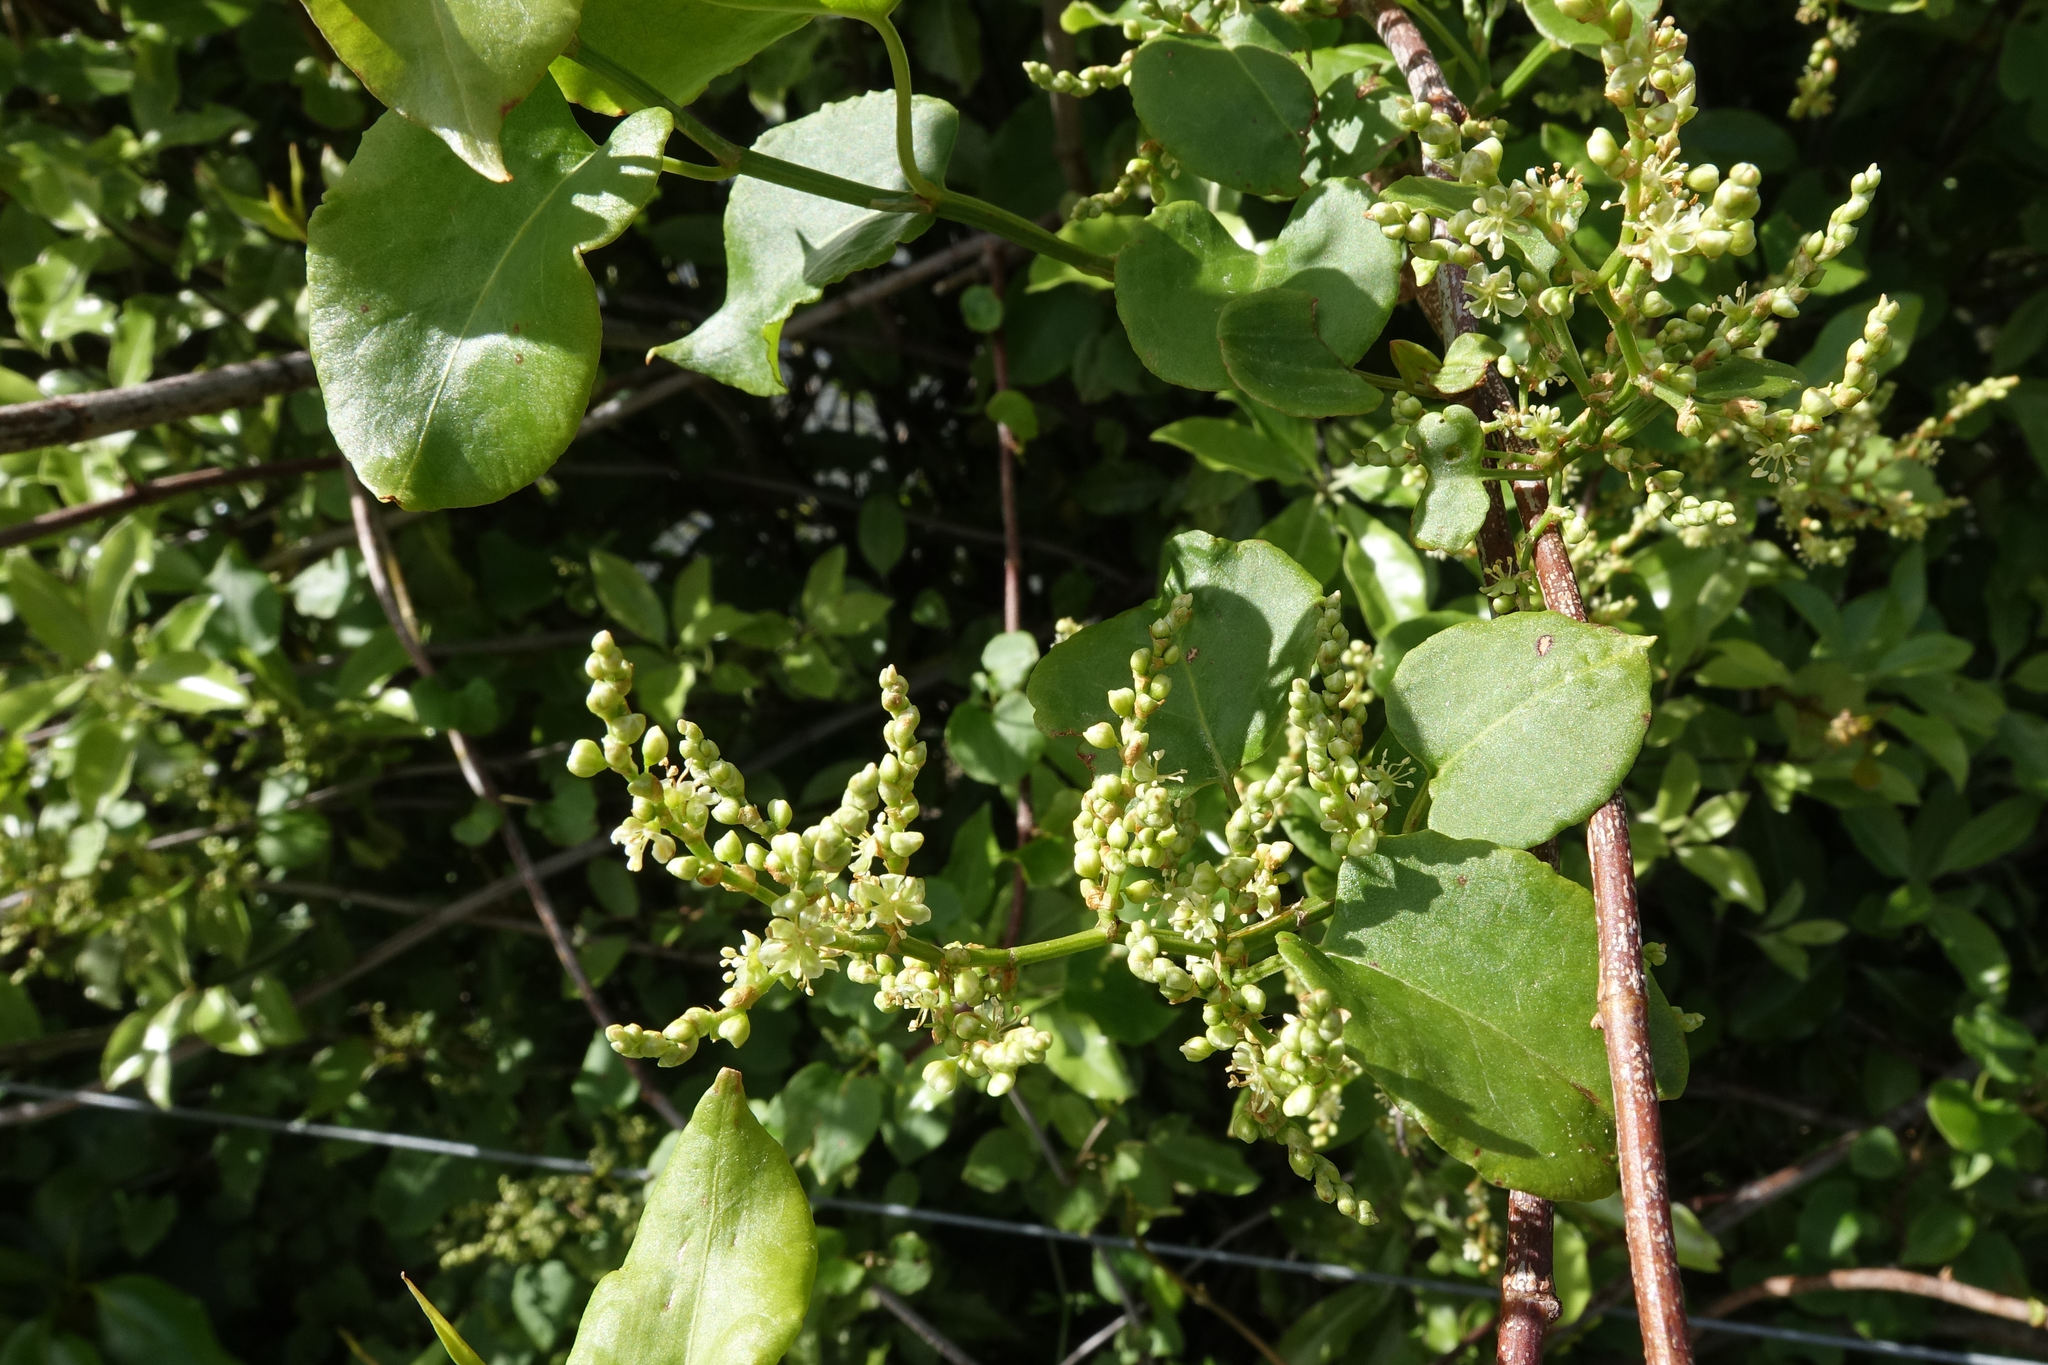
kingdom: Plantae
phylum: Tracheophyta
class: Magnoliopsida
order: Caryophyllales
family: Polygonaceae
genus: Muehlenbeckia
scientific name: Muehlenbeckia australis
